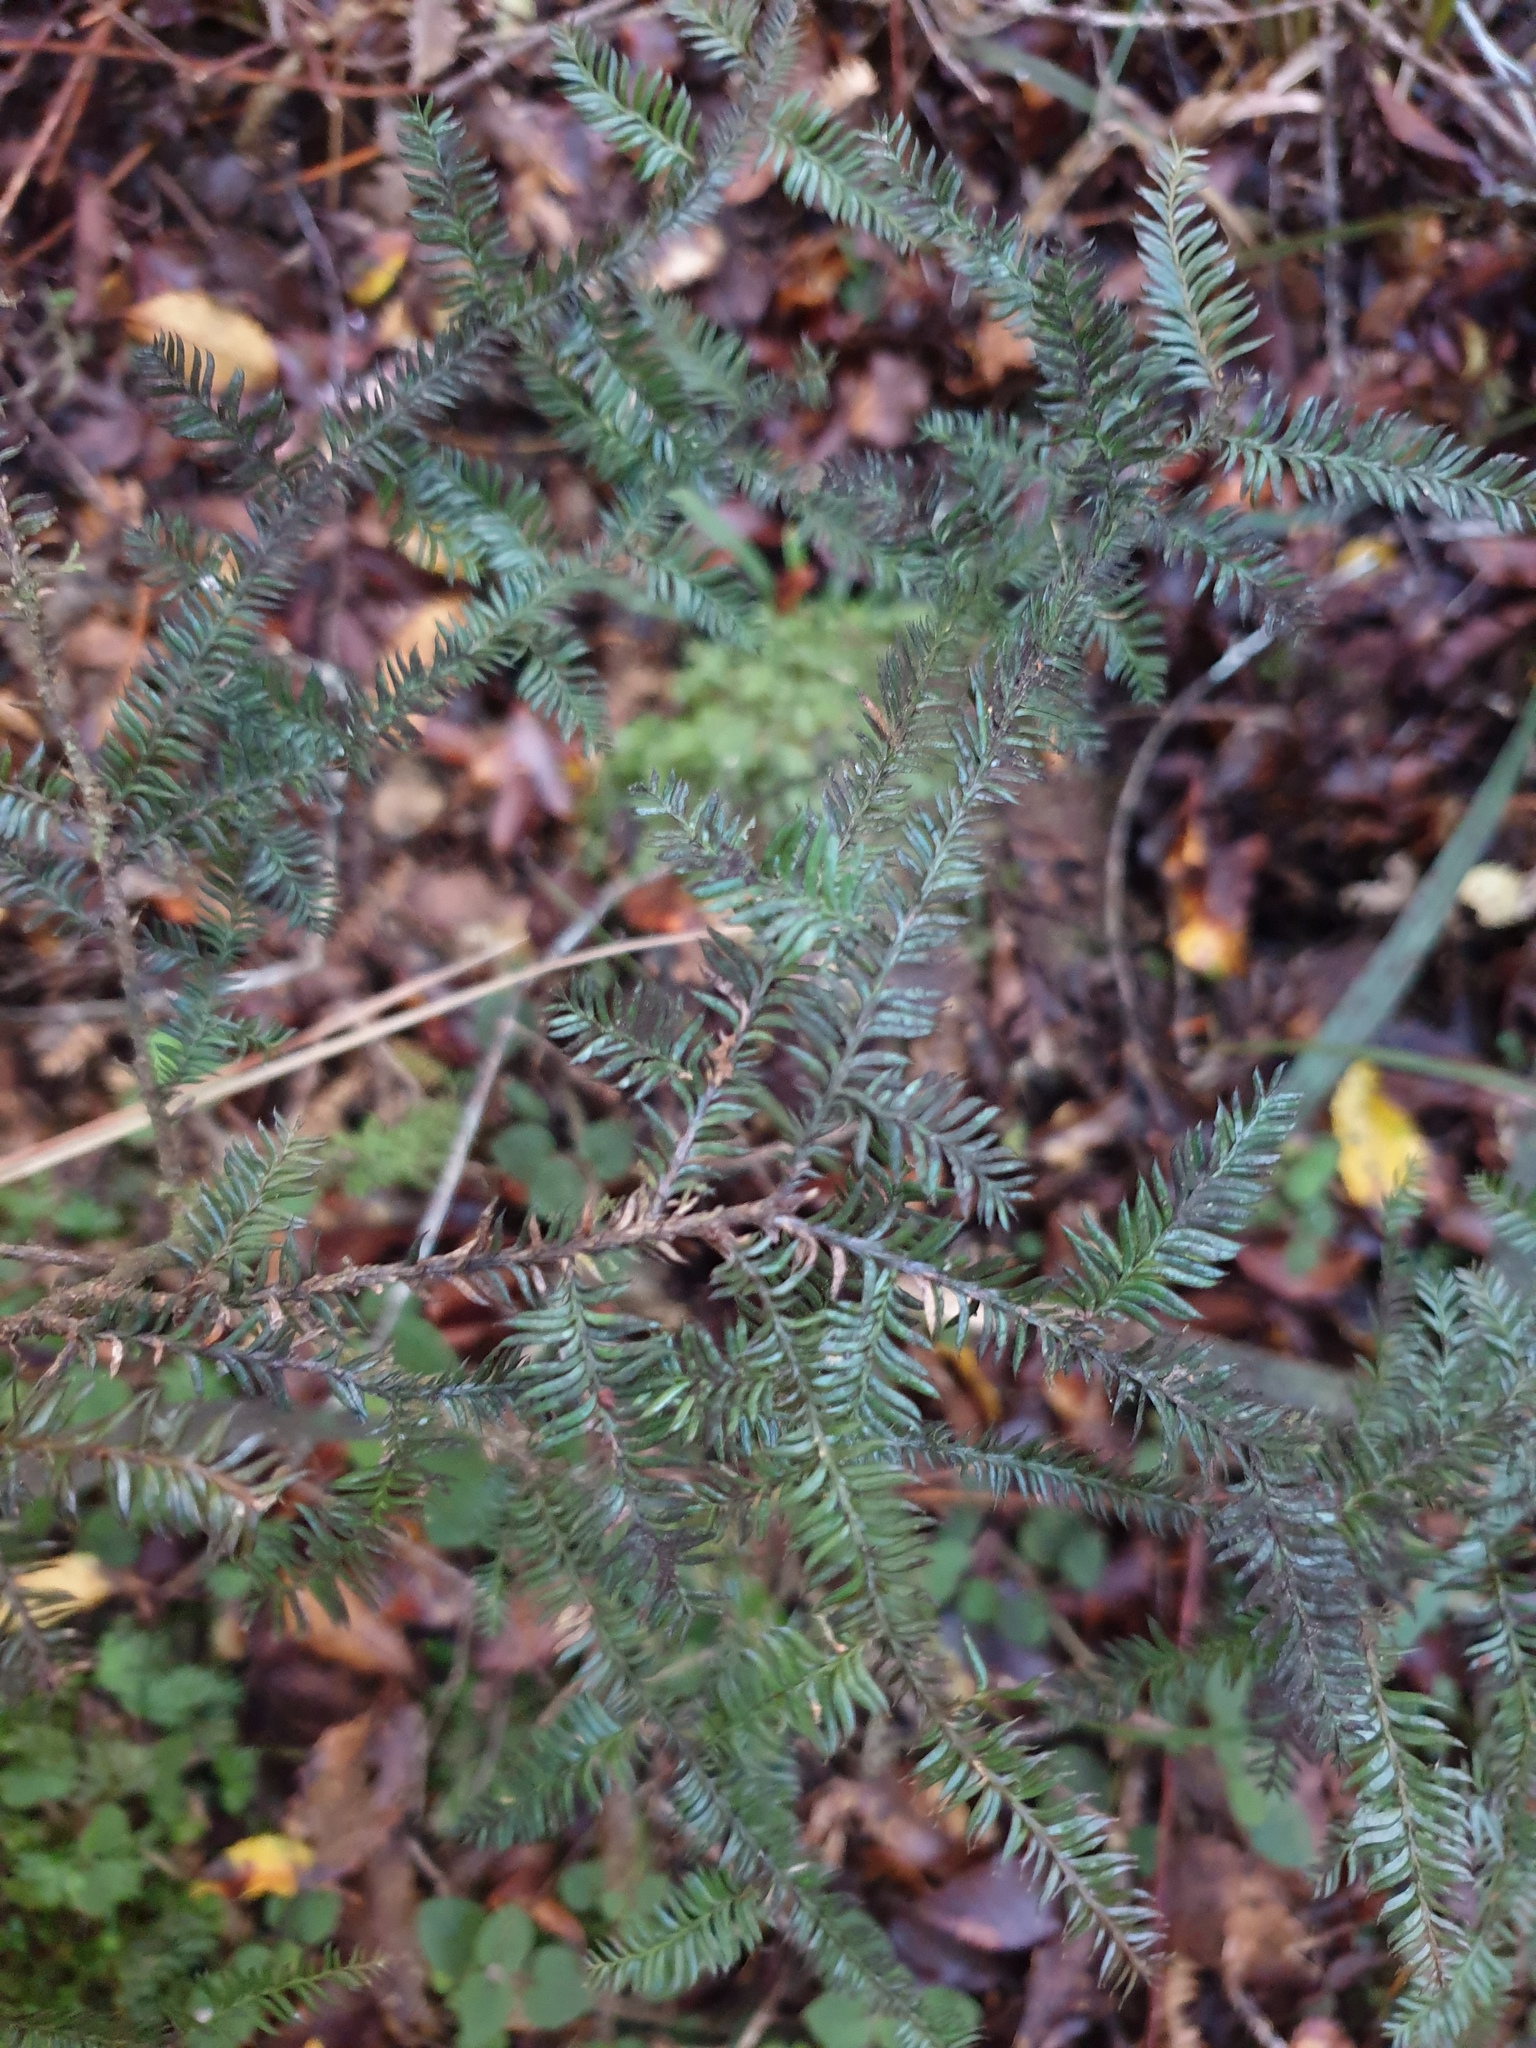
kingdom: Plantae
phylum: Tracheophyta
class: Pinopsida
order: Pinales
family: Podocarpaceae
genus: Dacrycarpus
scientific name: Dacrycarpus dacrydioides
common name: White pine
